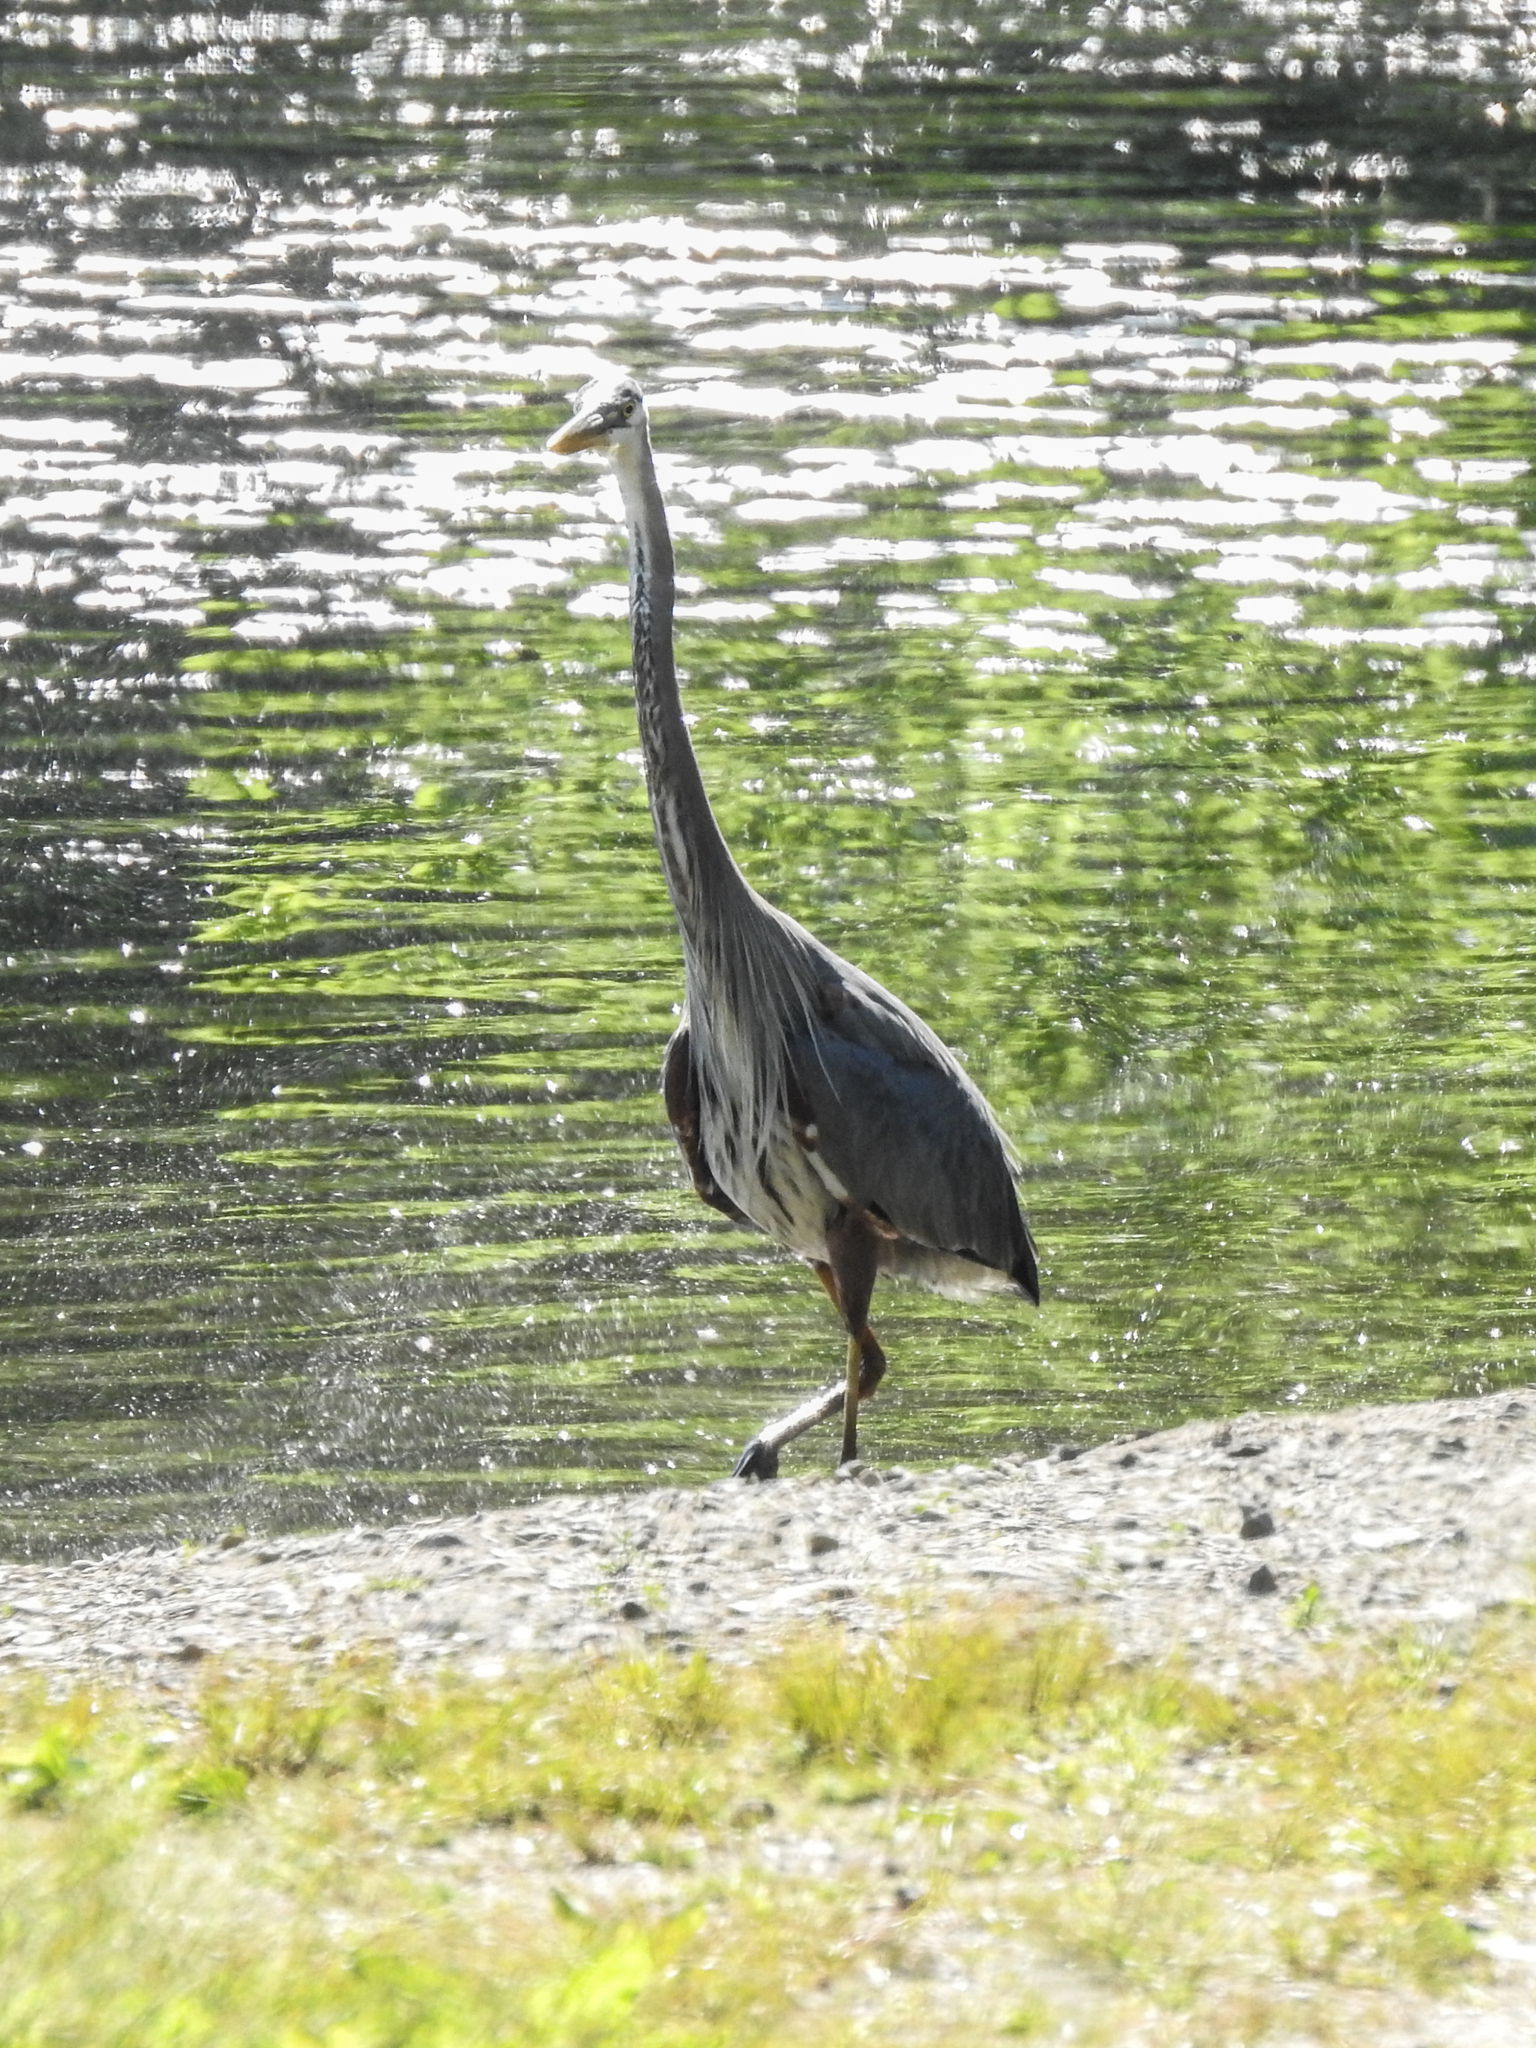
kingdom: Animalia
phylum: Chordata
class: Aves
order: Pelecaniformes
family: Ardeidae
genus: Ardea
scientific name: Ardea herodias
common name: Great blue heron
